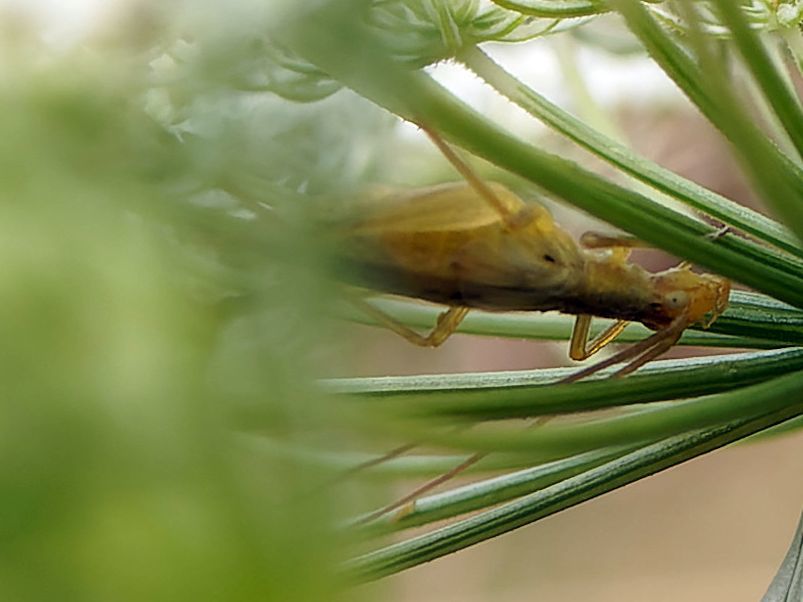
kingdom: Animalia
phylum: Arthropoda
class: Insecta
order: Orthoptera
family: Gryllidae
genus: Oecanthus
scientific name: Oecanthus pellucens
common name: Tree-cricket
